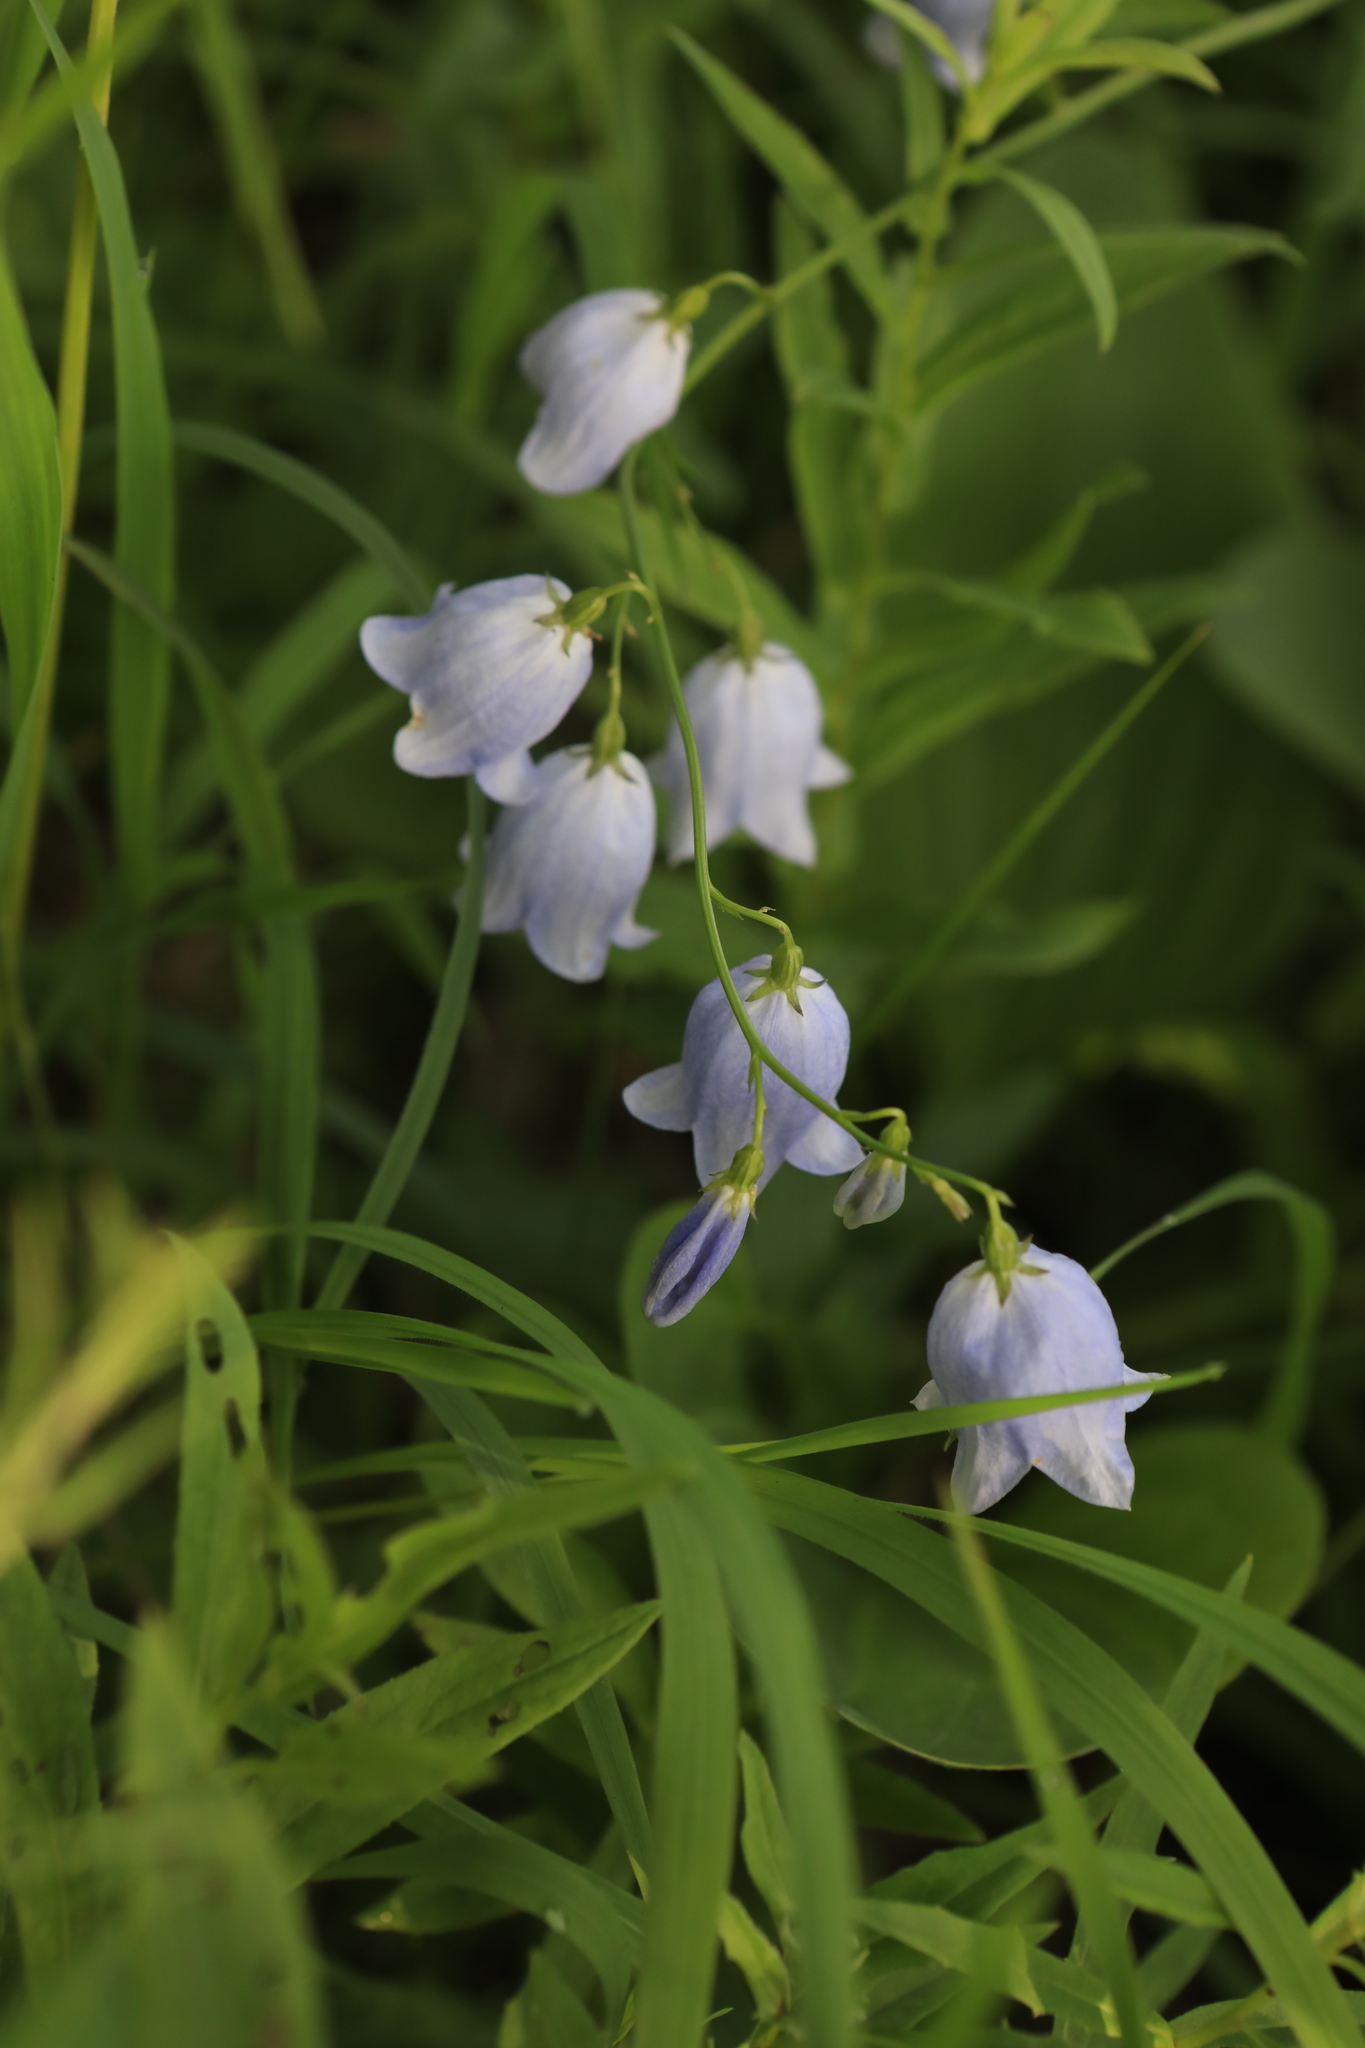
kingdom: Plantae
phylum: Tracheophyta
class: Magnoliopsida
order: Asterales
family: Campanulaceae
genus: Adenophora
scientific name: Adenophora liliifolia
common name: Lilyleaf ladybells
